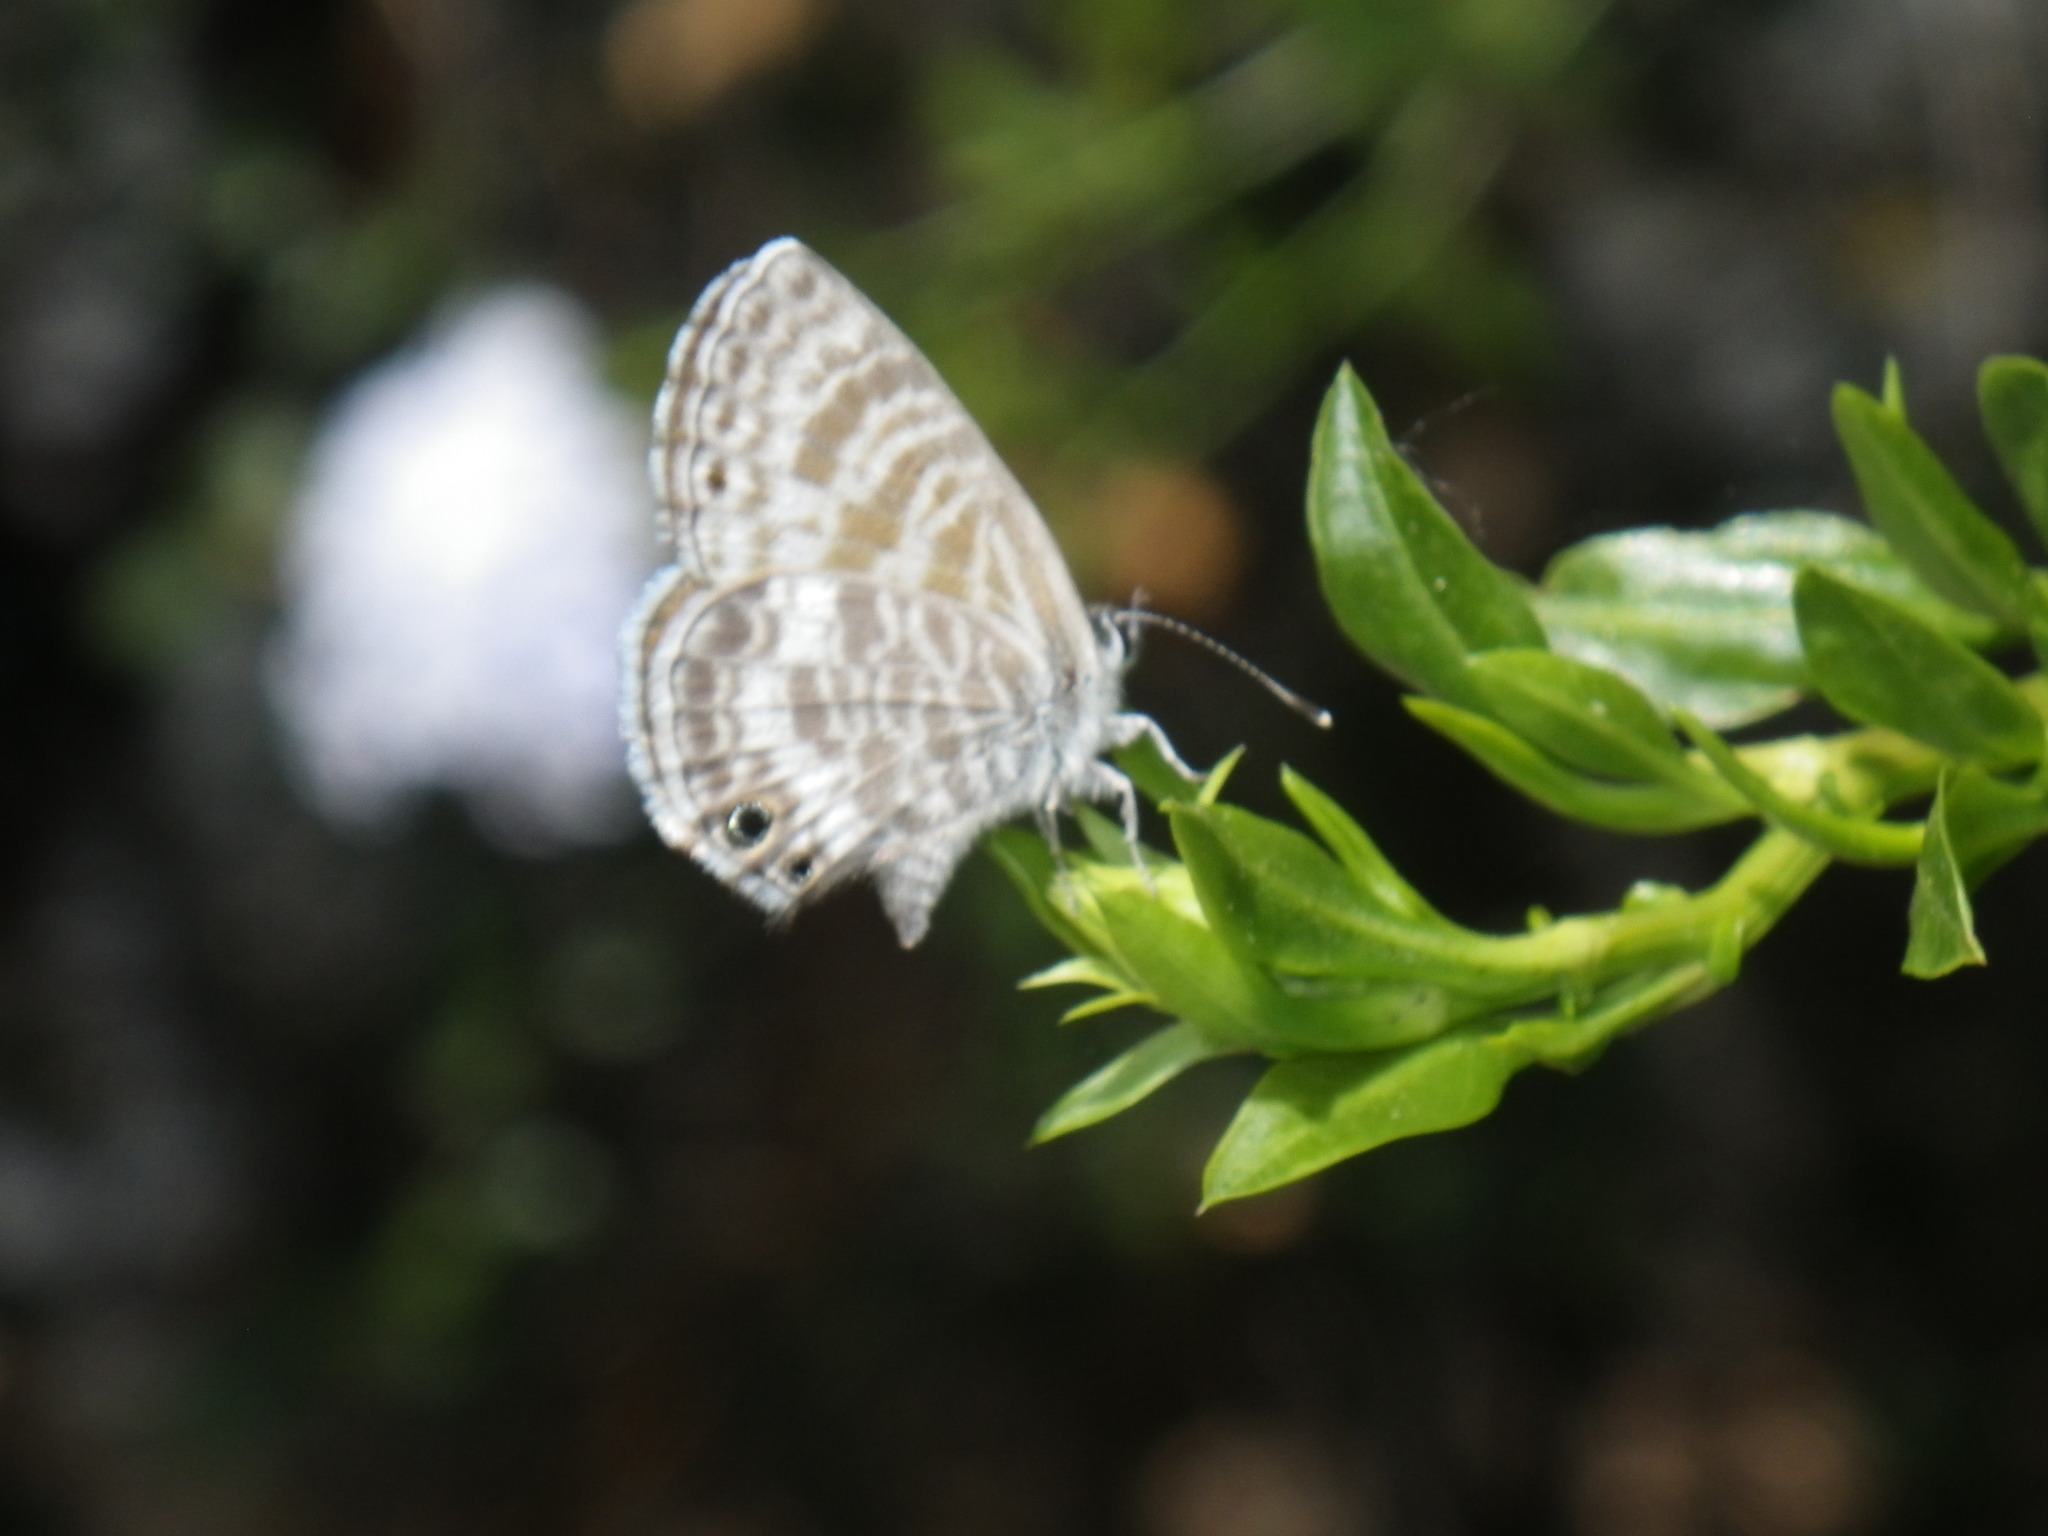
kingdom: Animalia
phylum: Arthropoda
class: Insecta
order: Lepidoptera
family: Lycaenidae
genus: Leptotes
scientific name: Leptotes marina
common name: Marine blue
